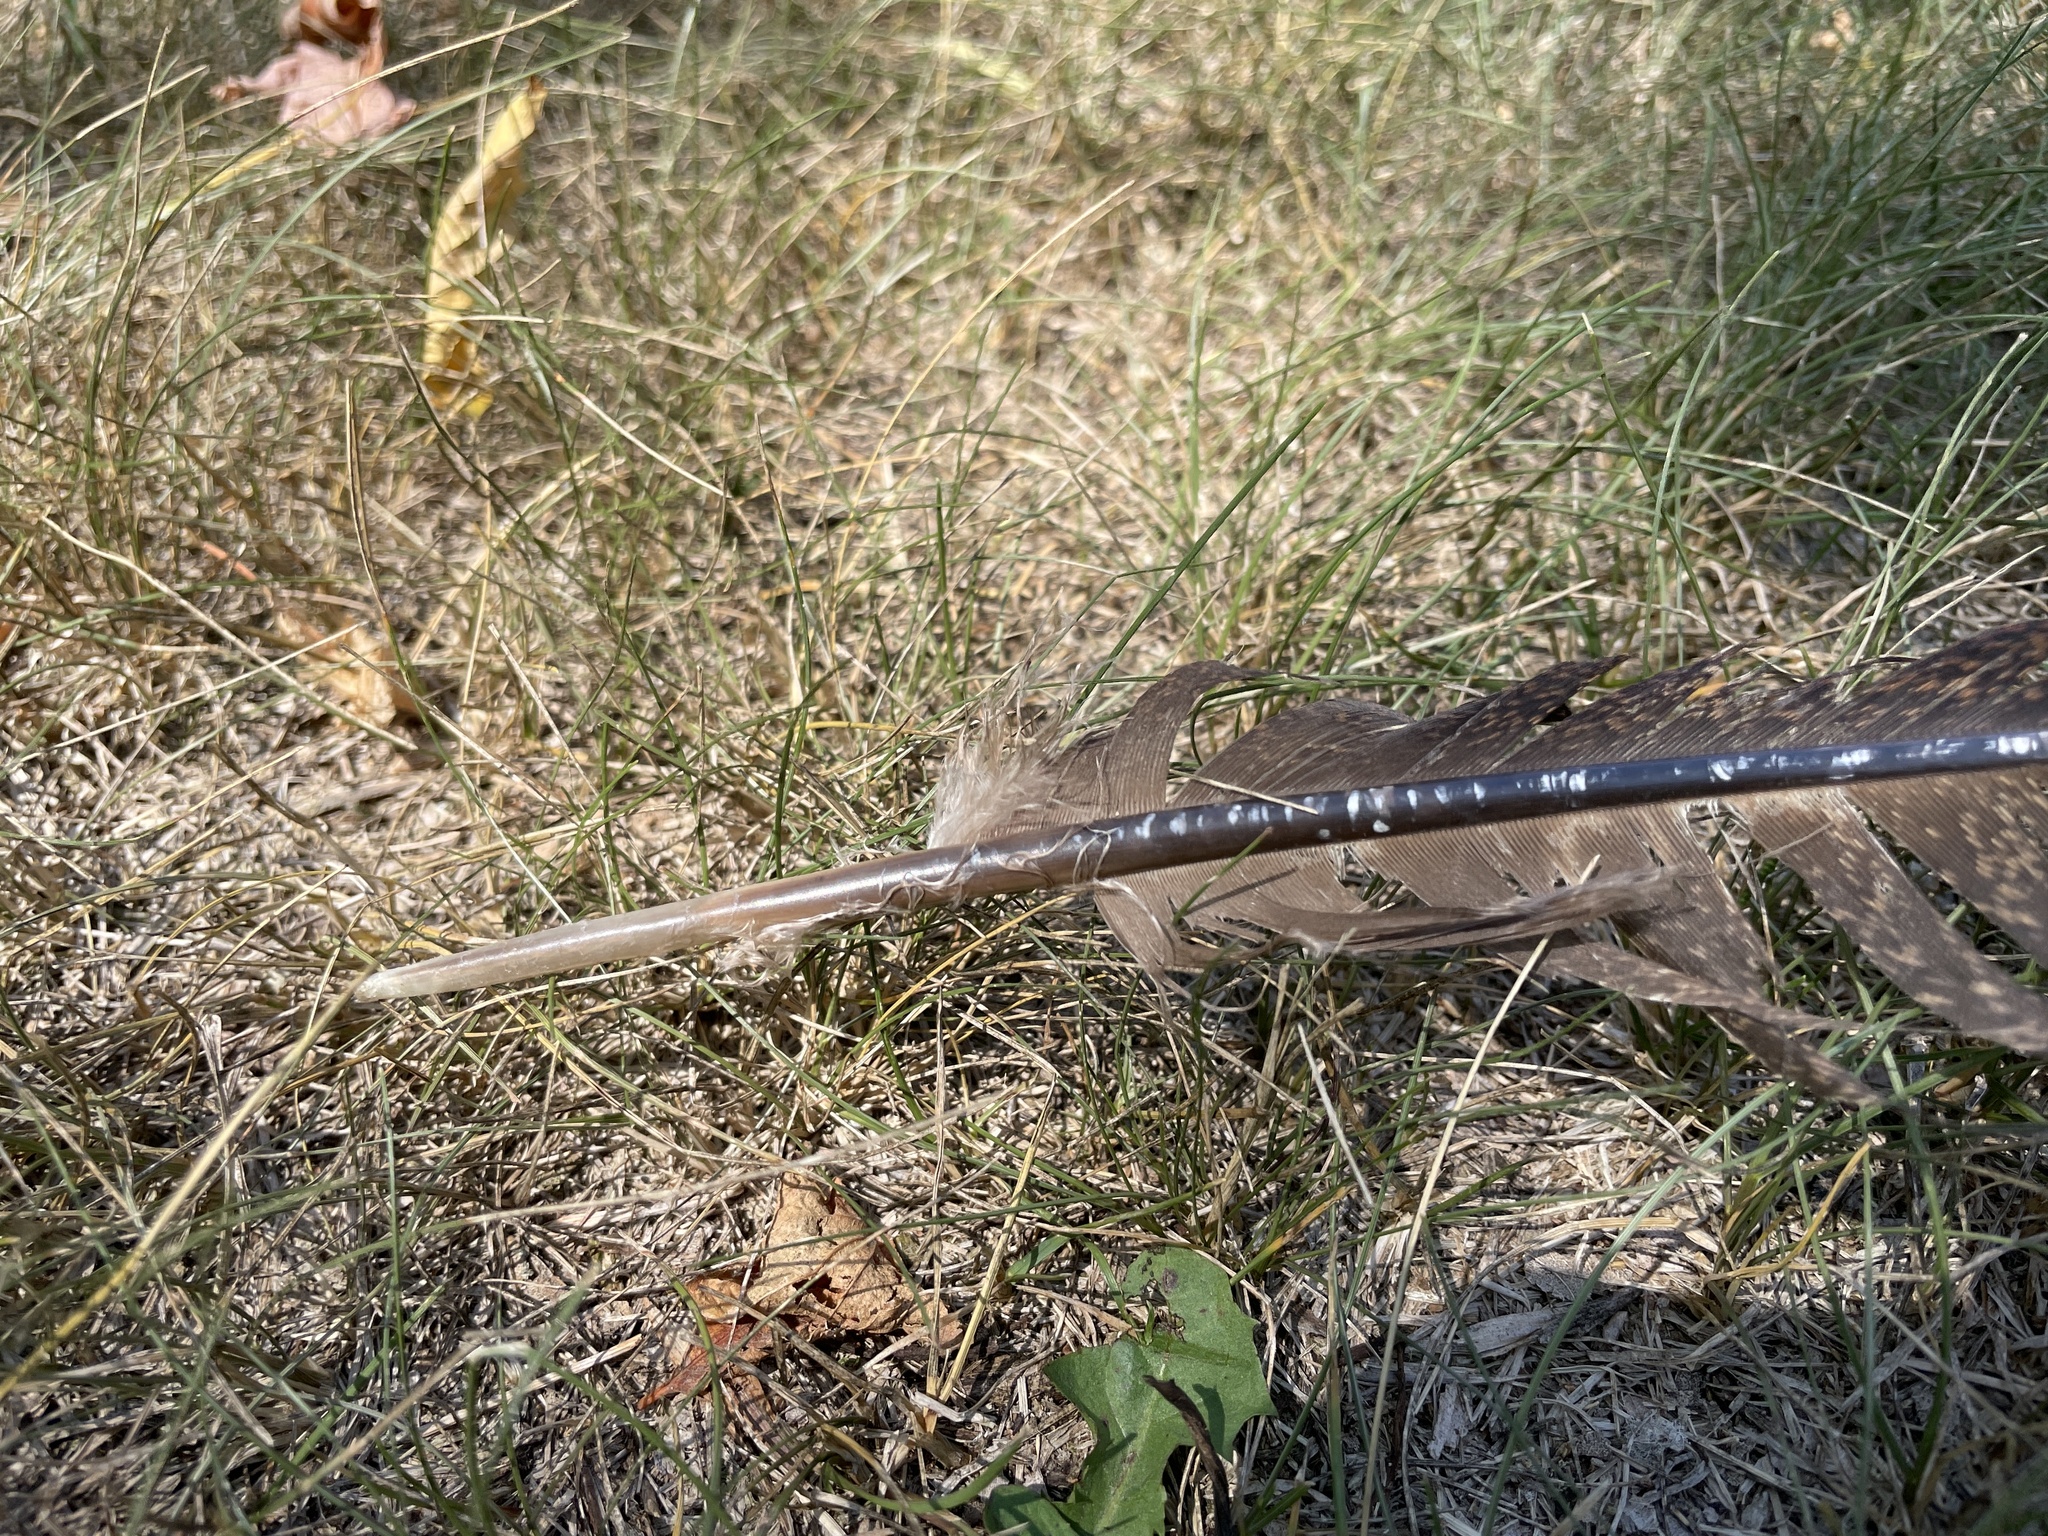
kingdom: Animalia
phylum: Chordata
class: Aves
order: Galliformes
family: Phasianidae
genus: Meleagris
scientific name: Meleagris gallopavo
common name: Wild turkey
